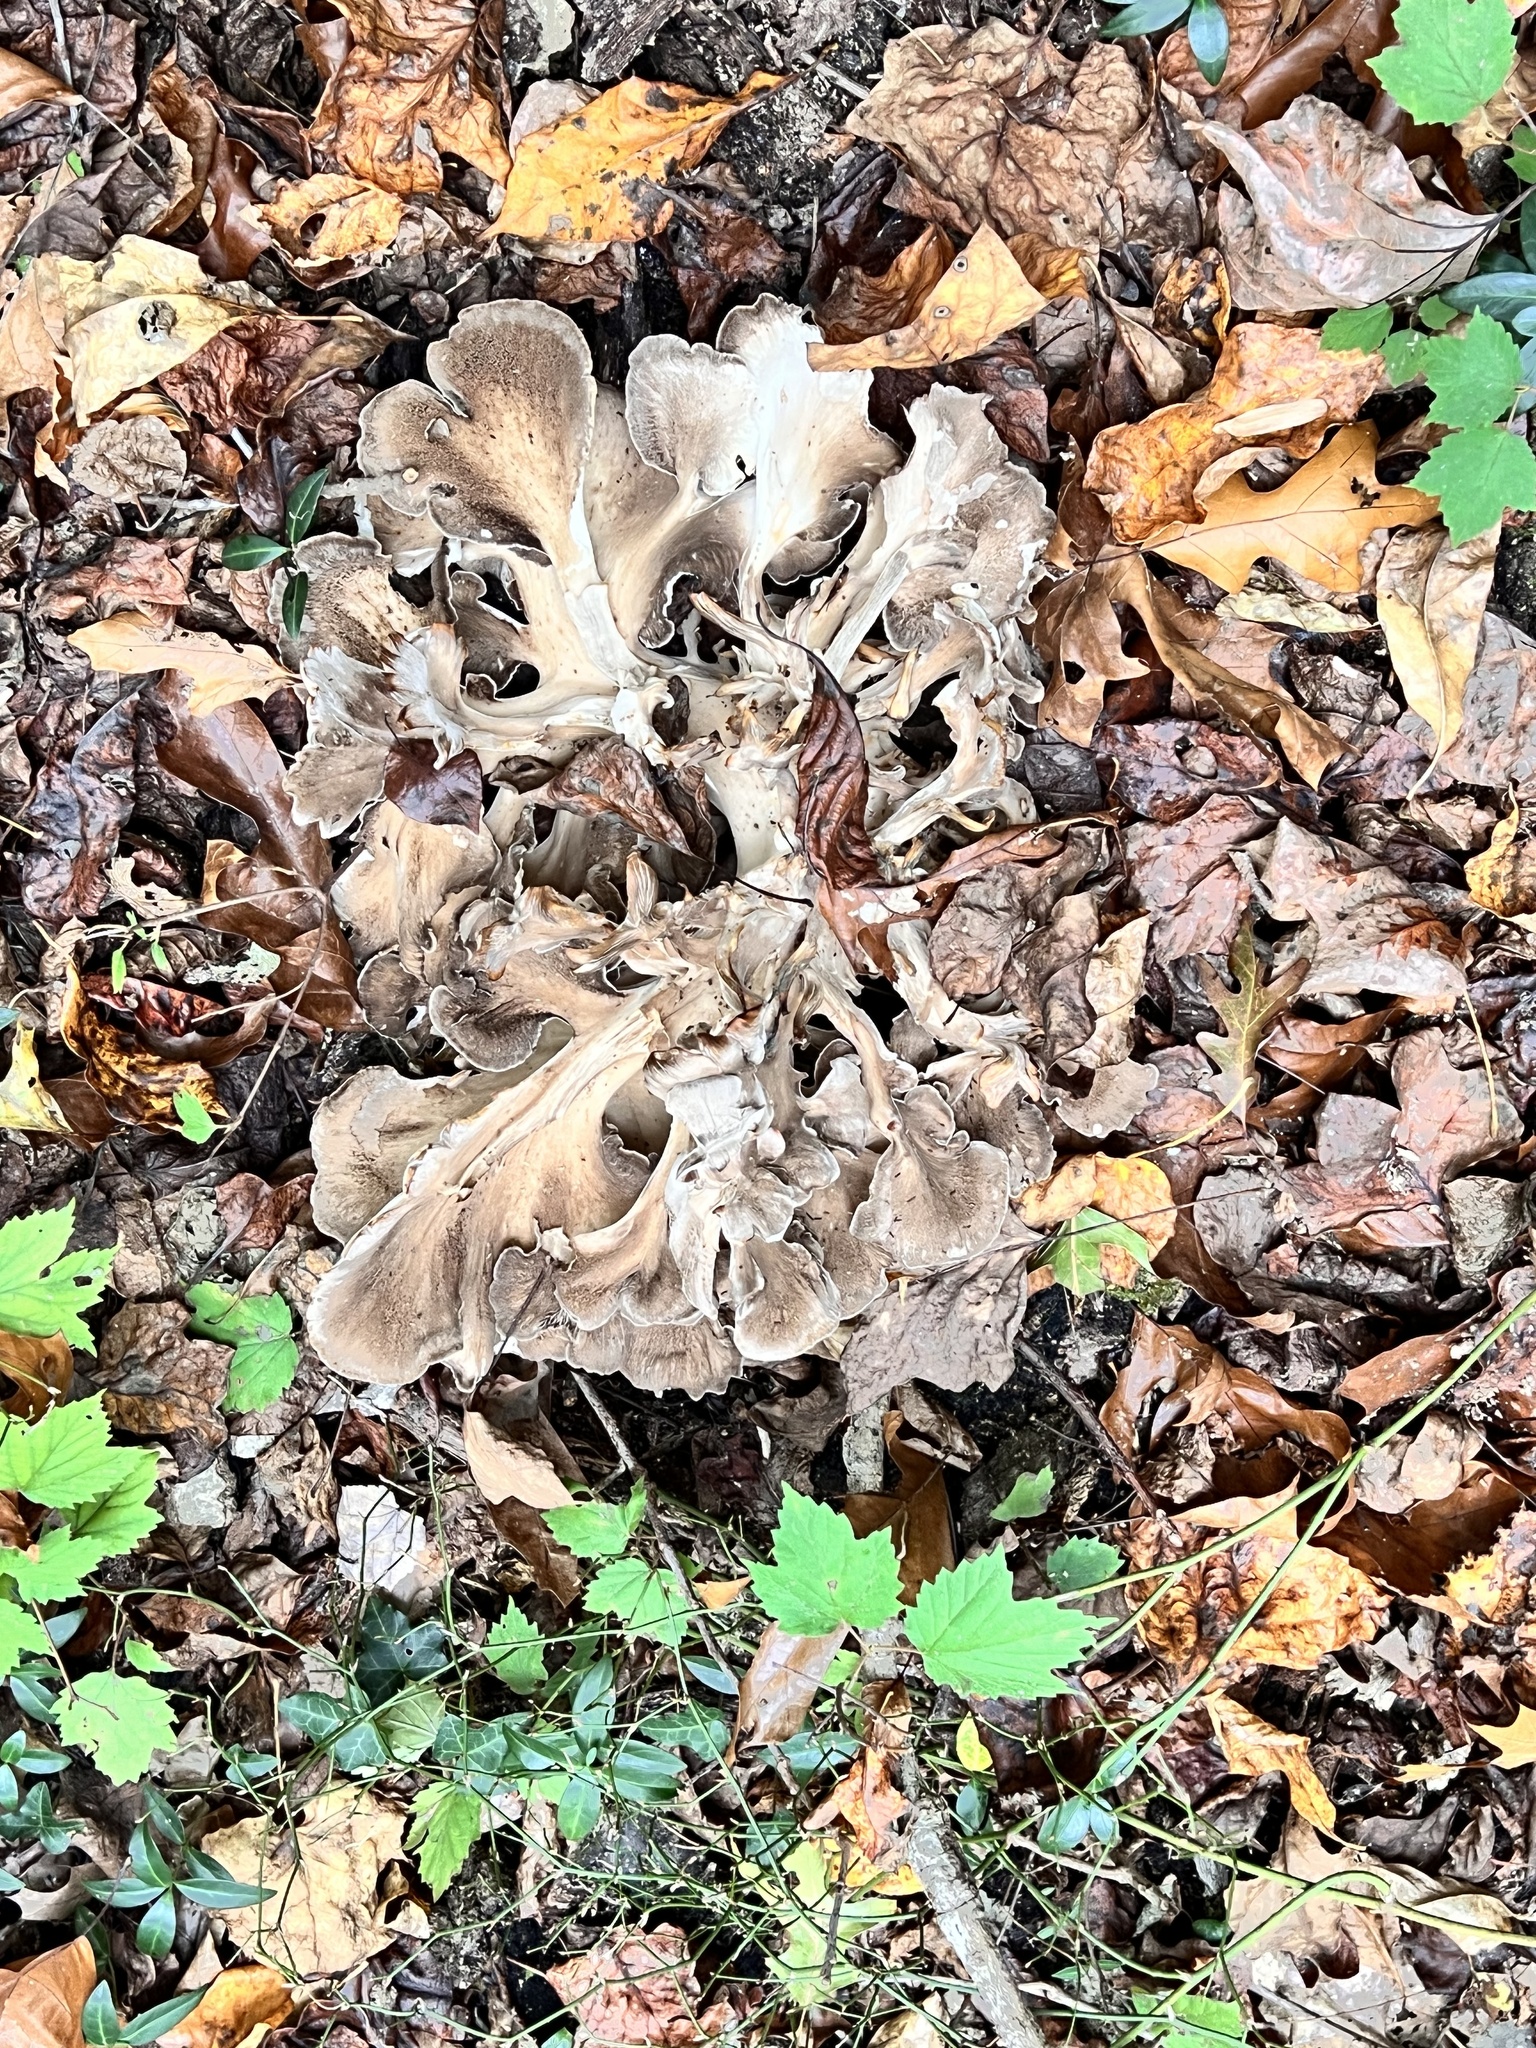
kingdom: Fungi
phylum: Basidiomycota
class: Agaricomycetes
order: Polyporales
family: Grifolaceae
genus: Grifola
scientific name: Grifola frondosa
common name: Hen of the woods
